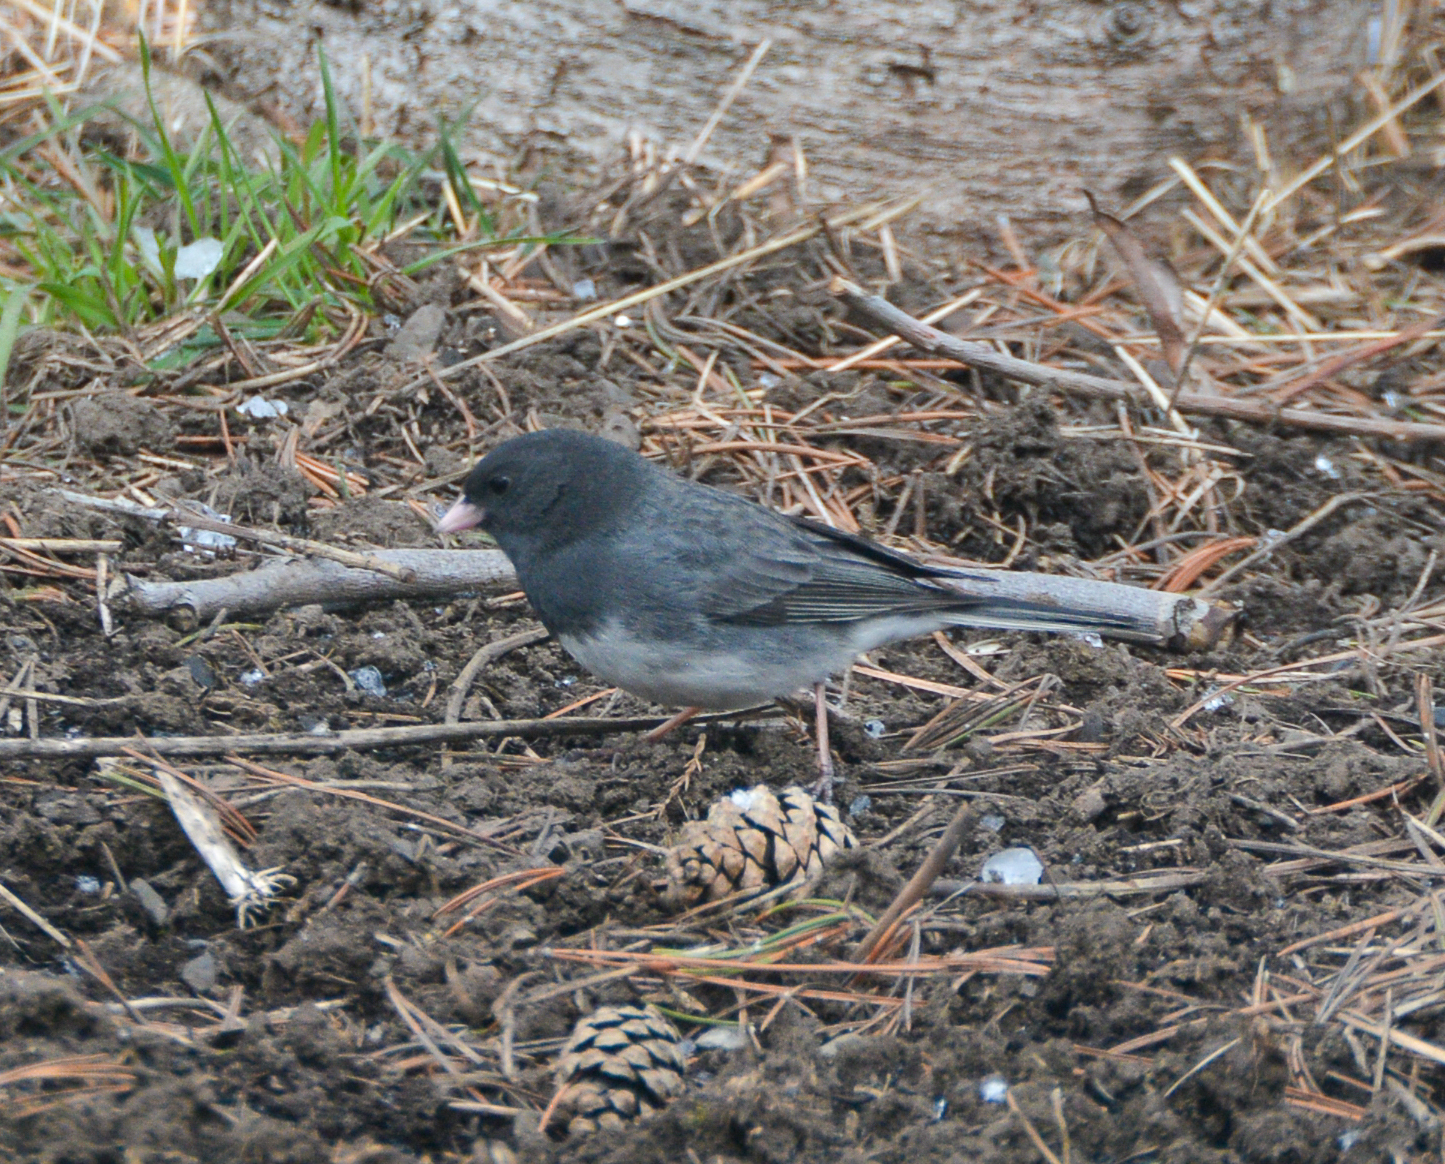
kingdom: Animalia
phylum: Chordata
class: Aves
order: Passeriformes
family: Passerellidae
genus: Junco
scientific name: Junco hyemalis
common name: Dark-eyed junco
